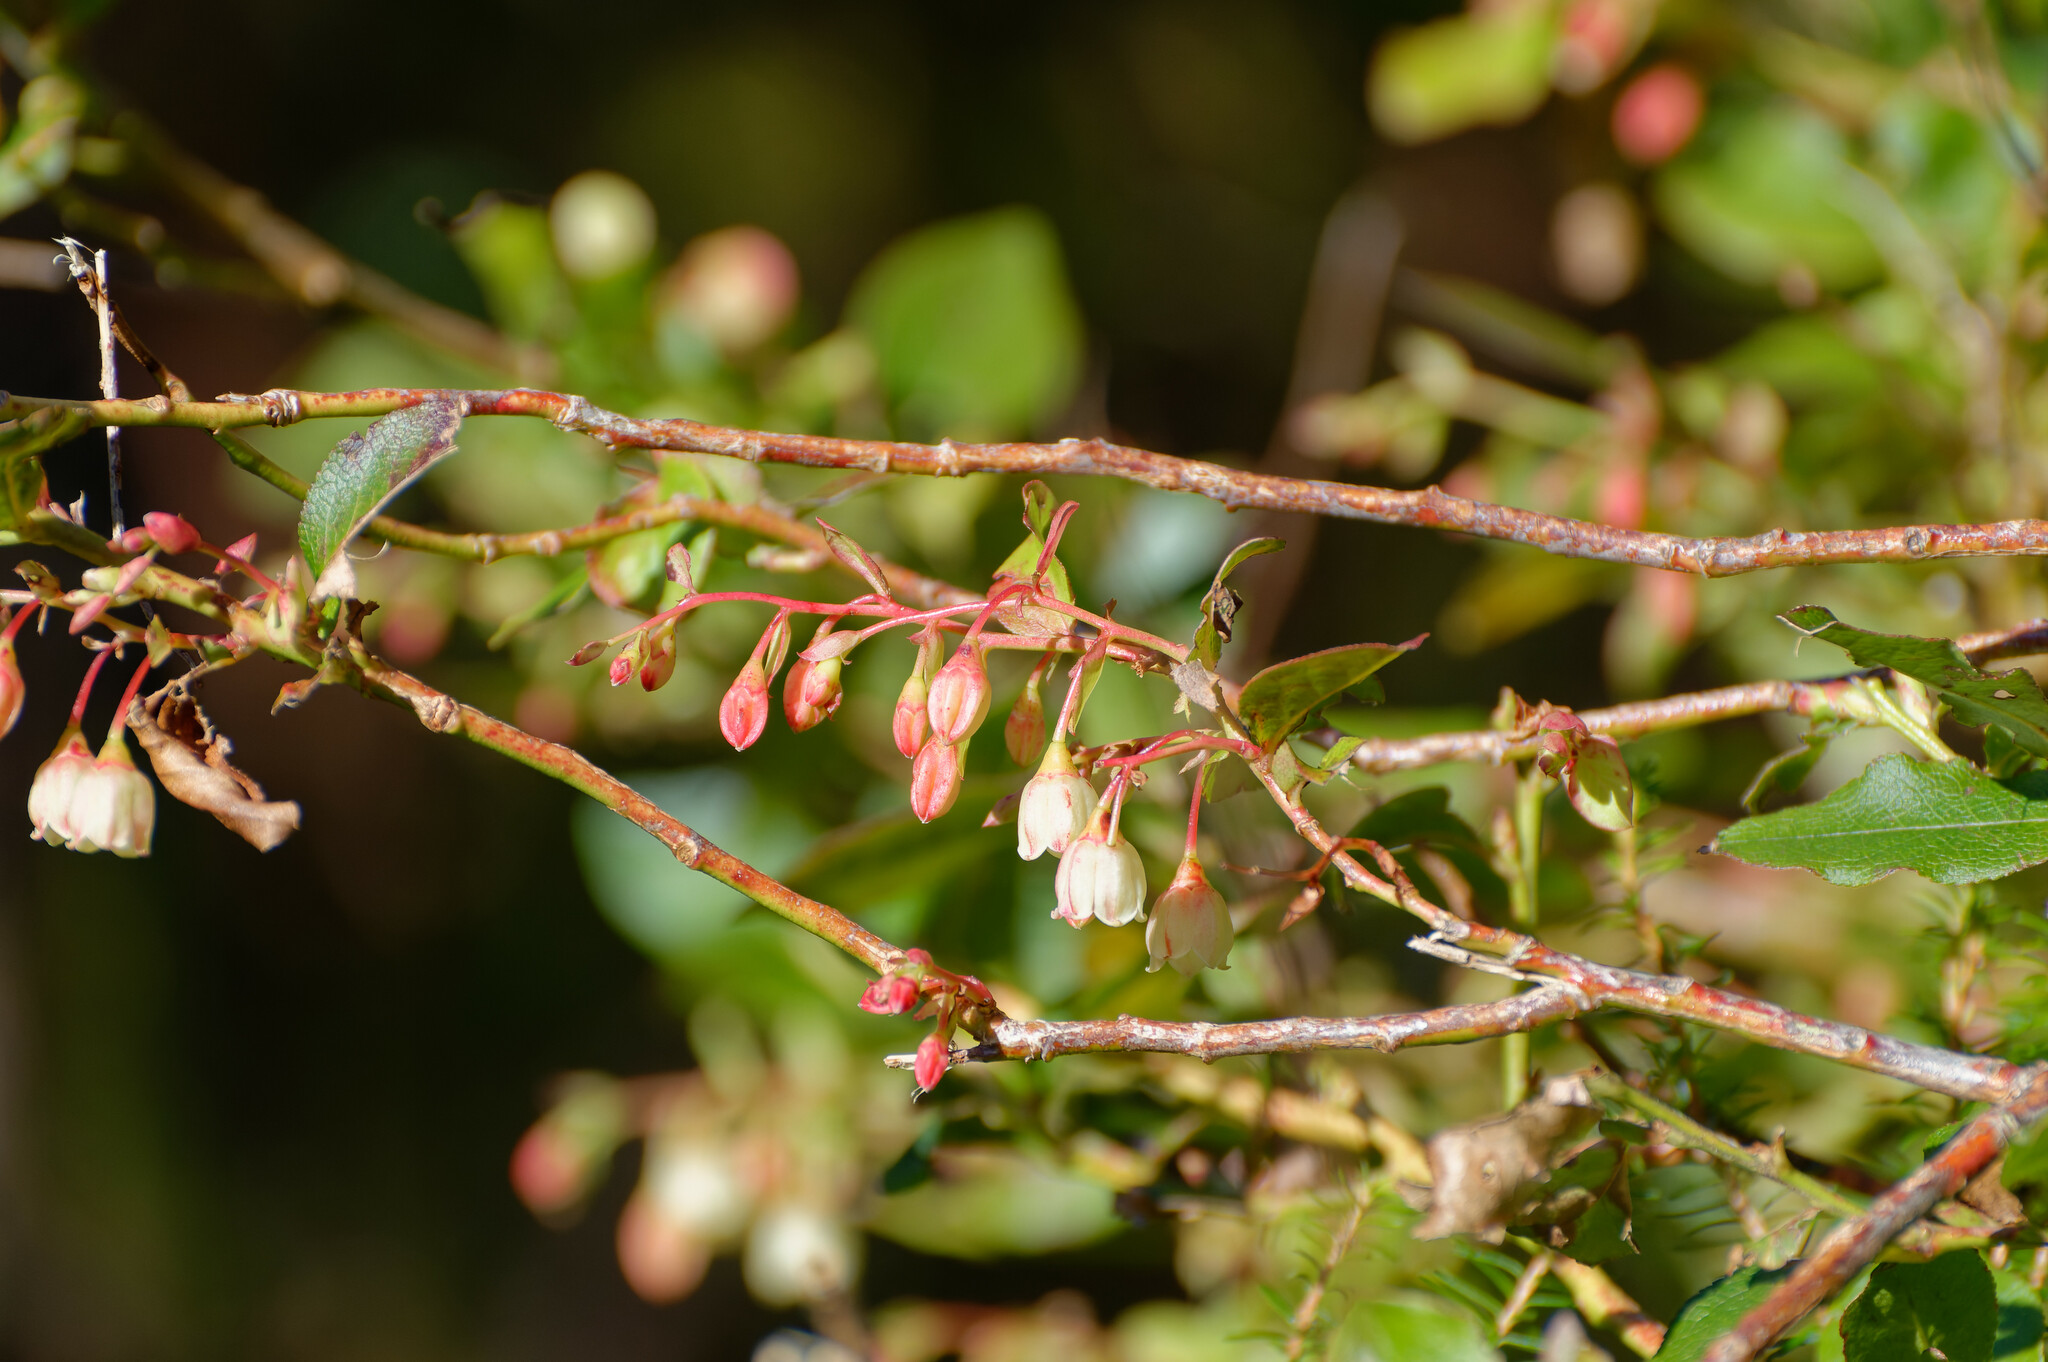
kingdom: Plantae
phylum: Tracheophyta
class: Magnoliopsida
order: Ericales
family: Ericaceae
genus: Vaccinium
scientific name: Vaccinium padifolium
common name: Madeiran blueberry
